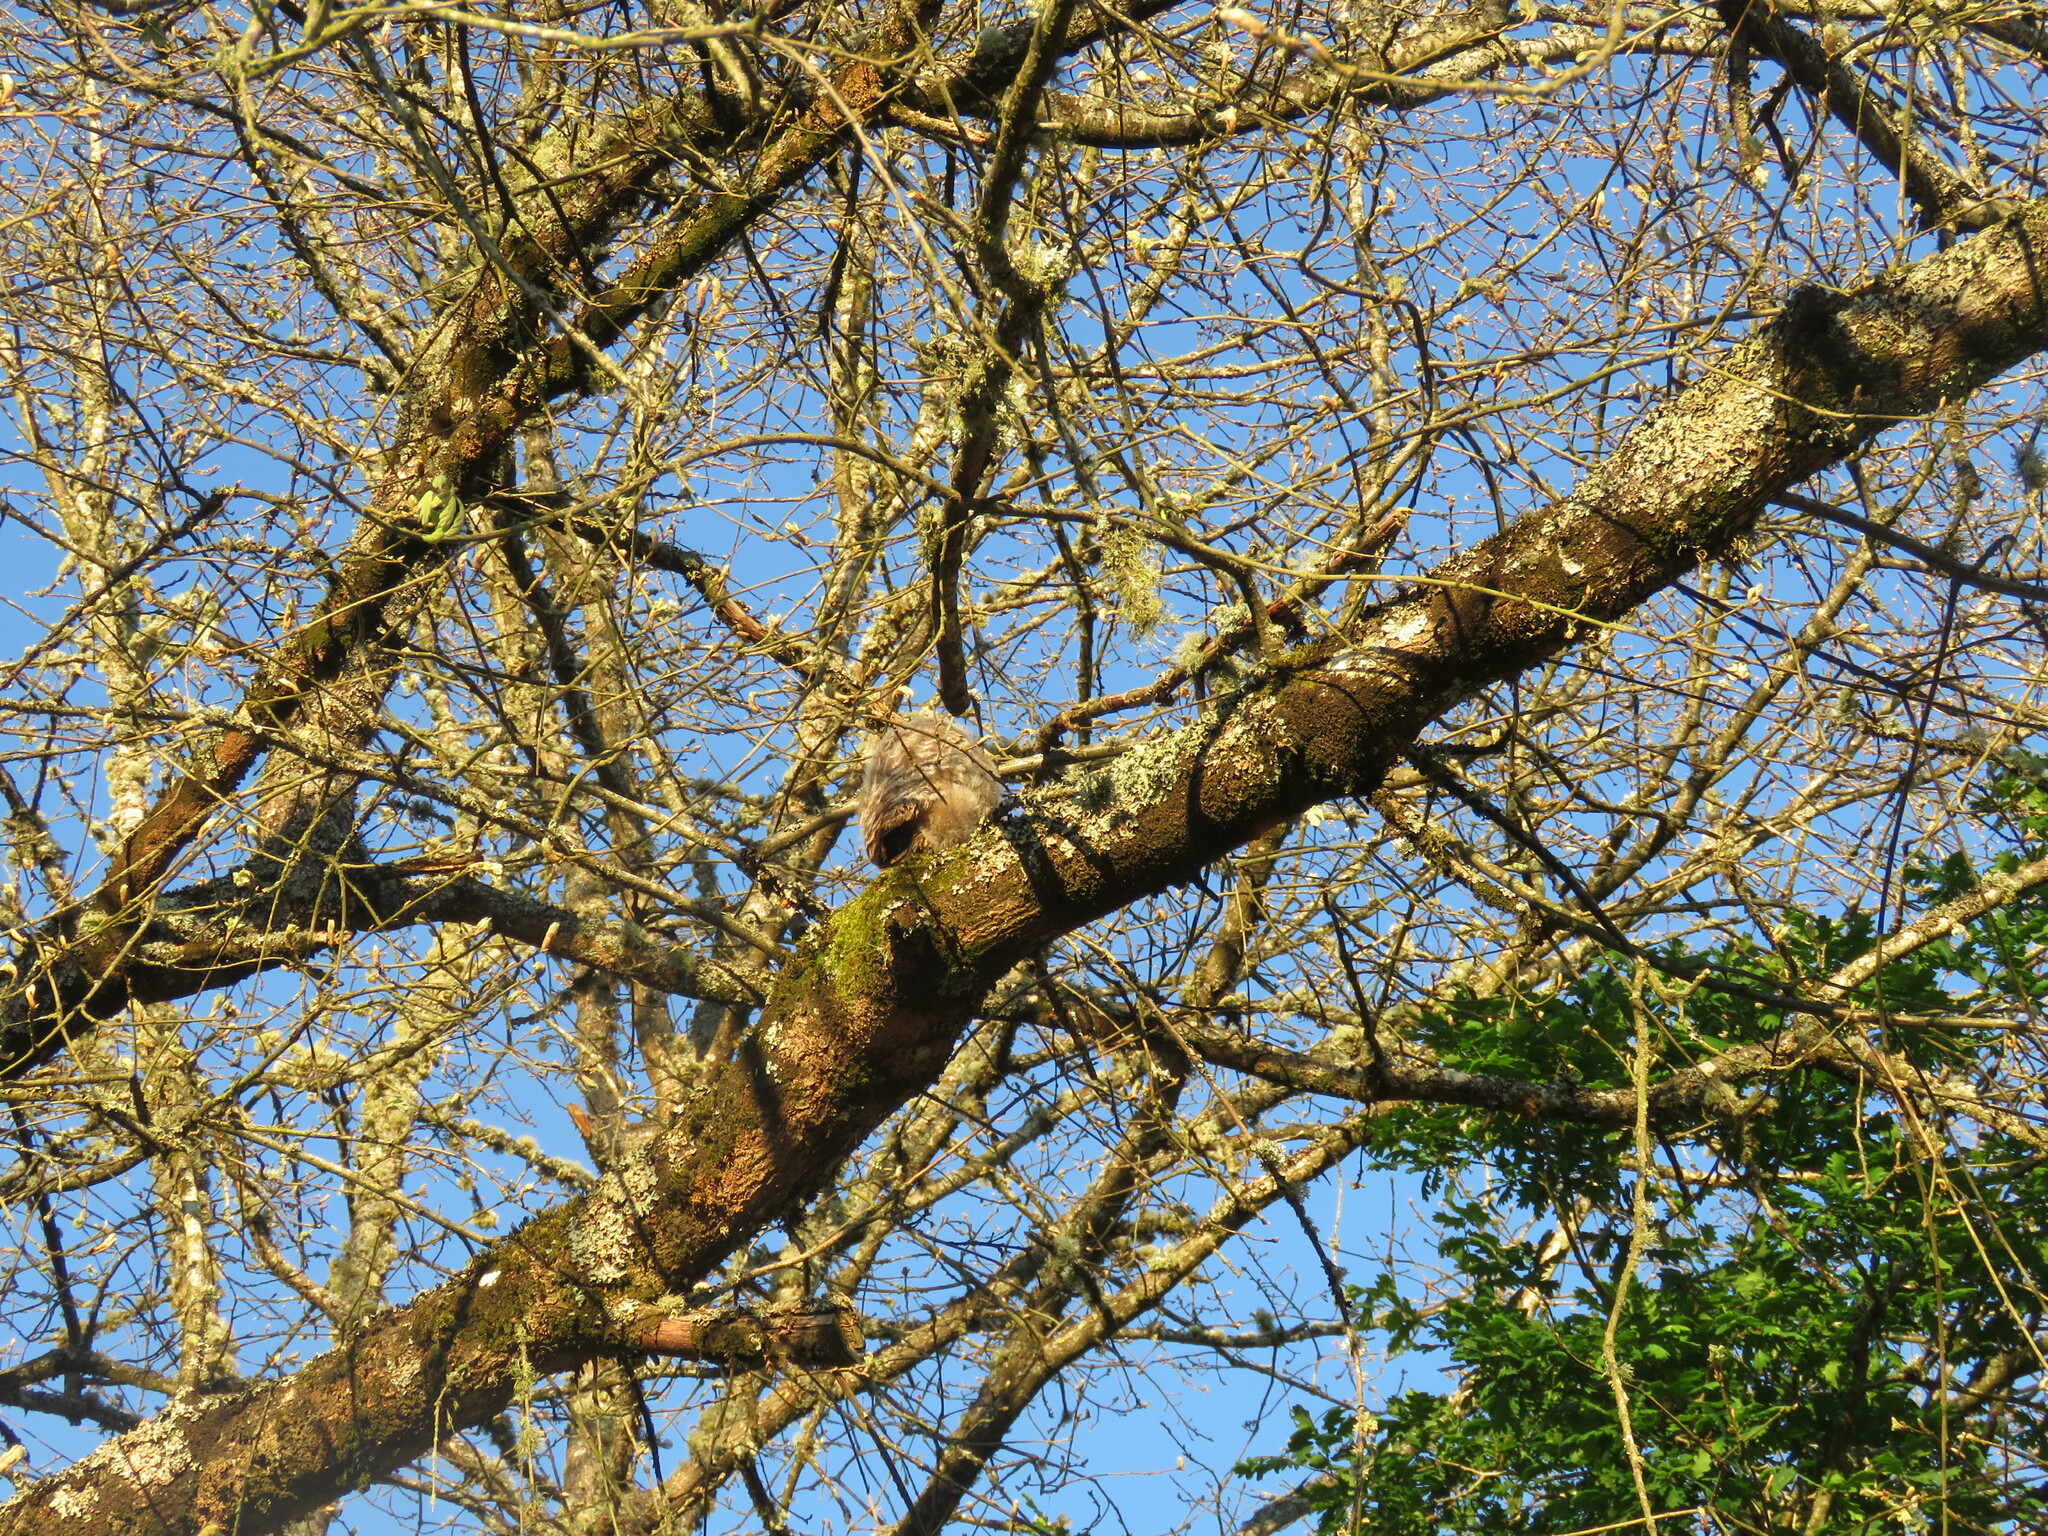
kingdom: Animalia
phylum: Chordata
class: Aves
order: Strigiformes
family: Strigidae
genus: Strix
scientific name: Strix aluco
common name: Tawny owl
